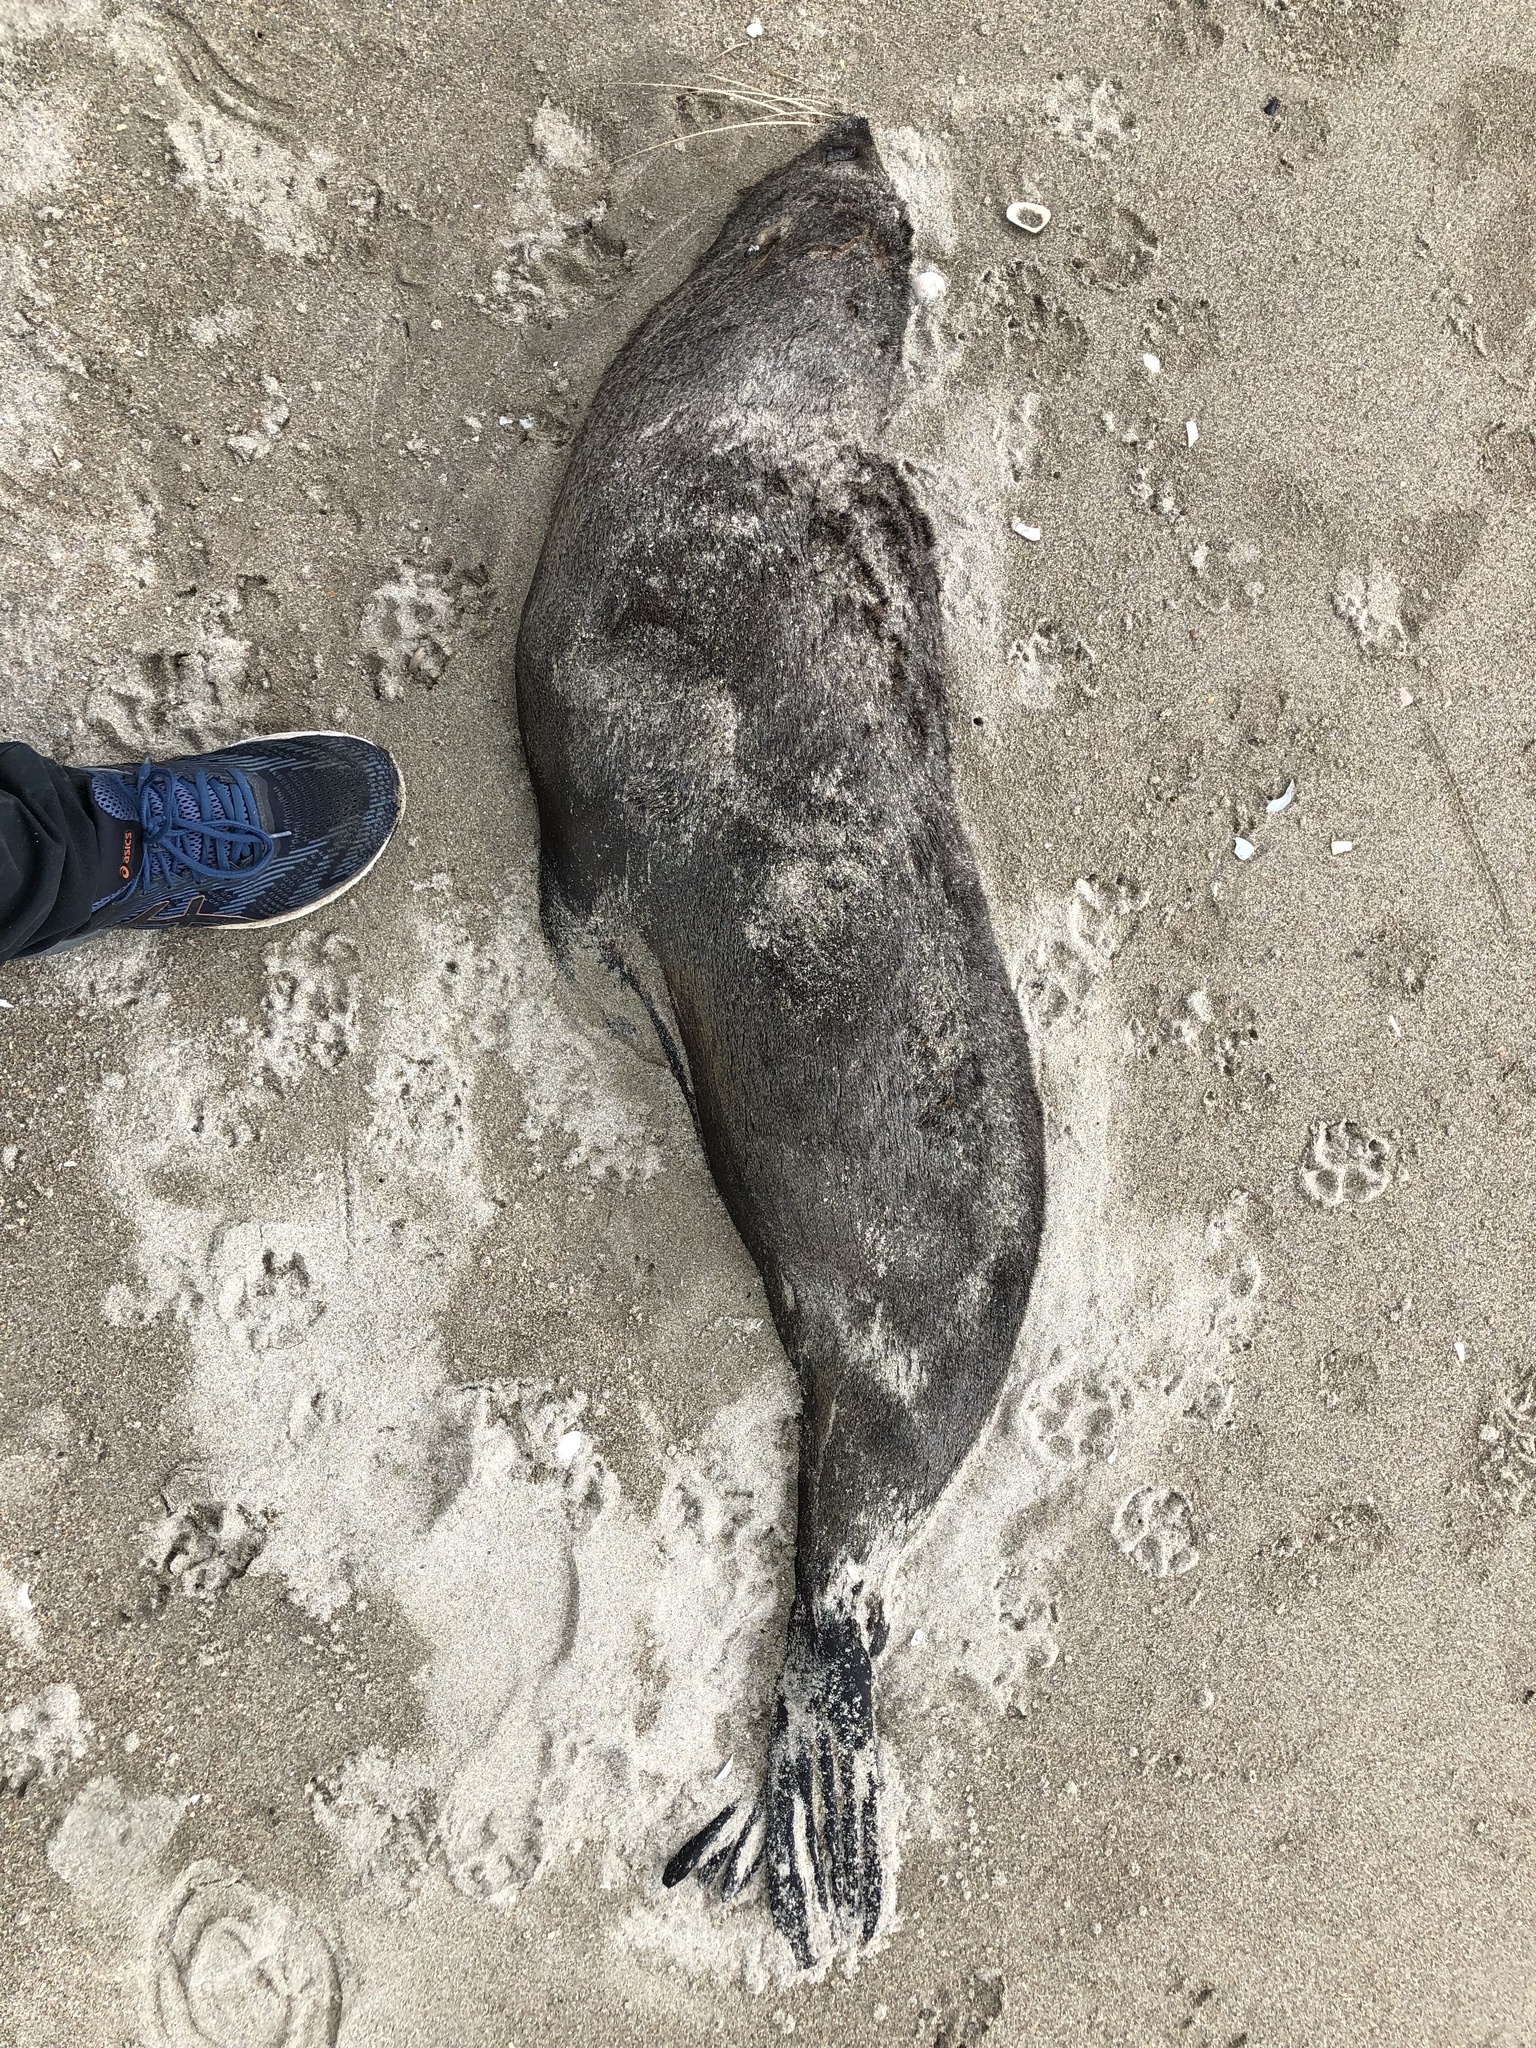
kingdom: Animalia
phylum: Chordata
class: Mammalia
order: Carnivora
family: Otariidae
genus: Arctocephalus
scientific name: Arctocephalus forsteri
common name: New zealand fur seal
